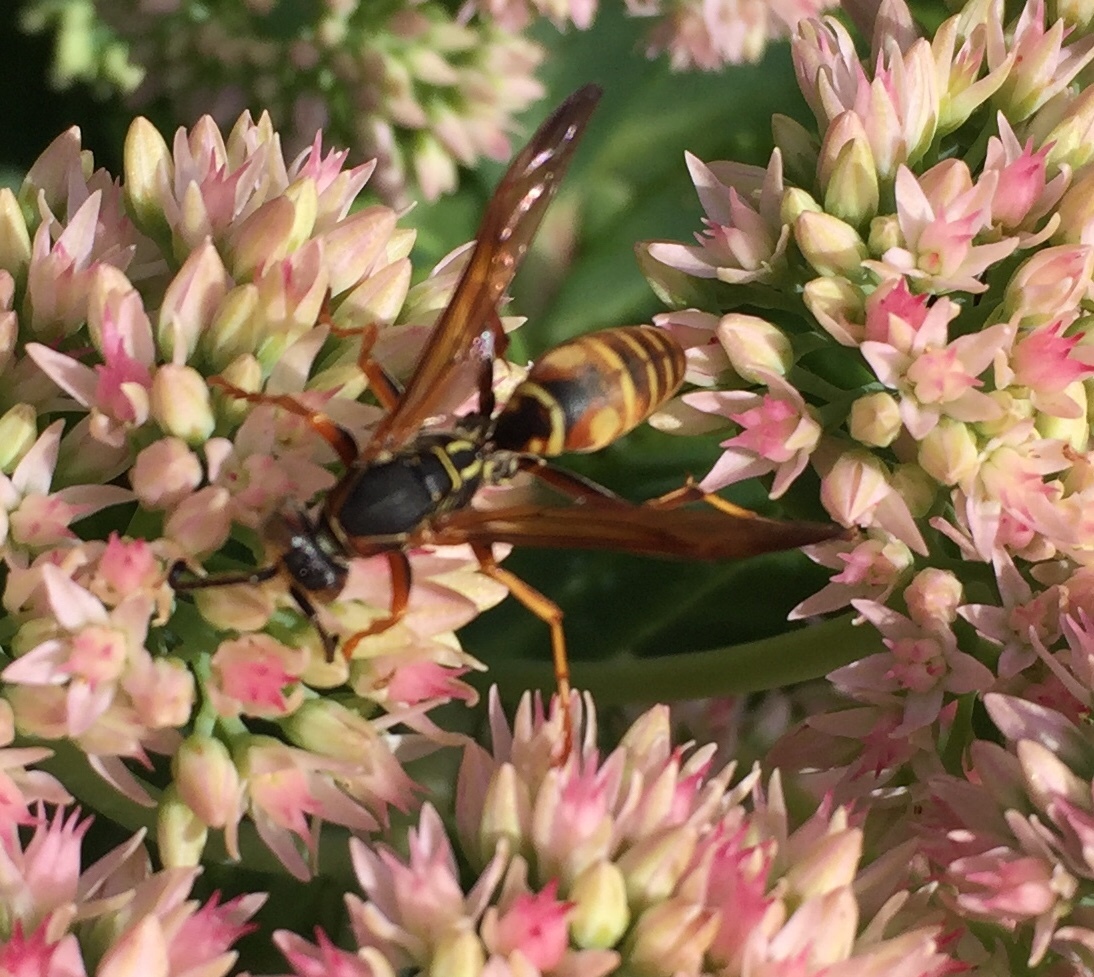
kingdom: Animalia
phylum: Arthropoda
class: Insecta
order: Hymenoptera
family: Eumenidae
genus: Polistes
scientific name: Polistes fuscatus
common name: Dark paper wasp
